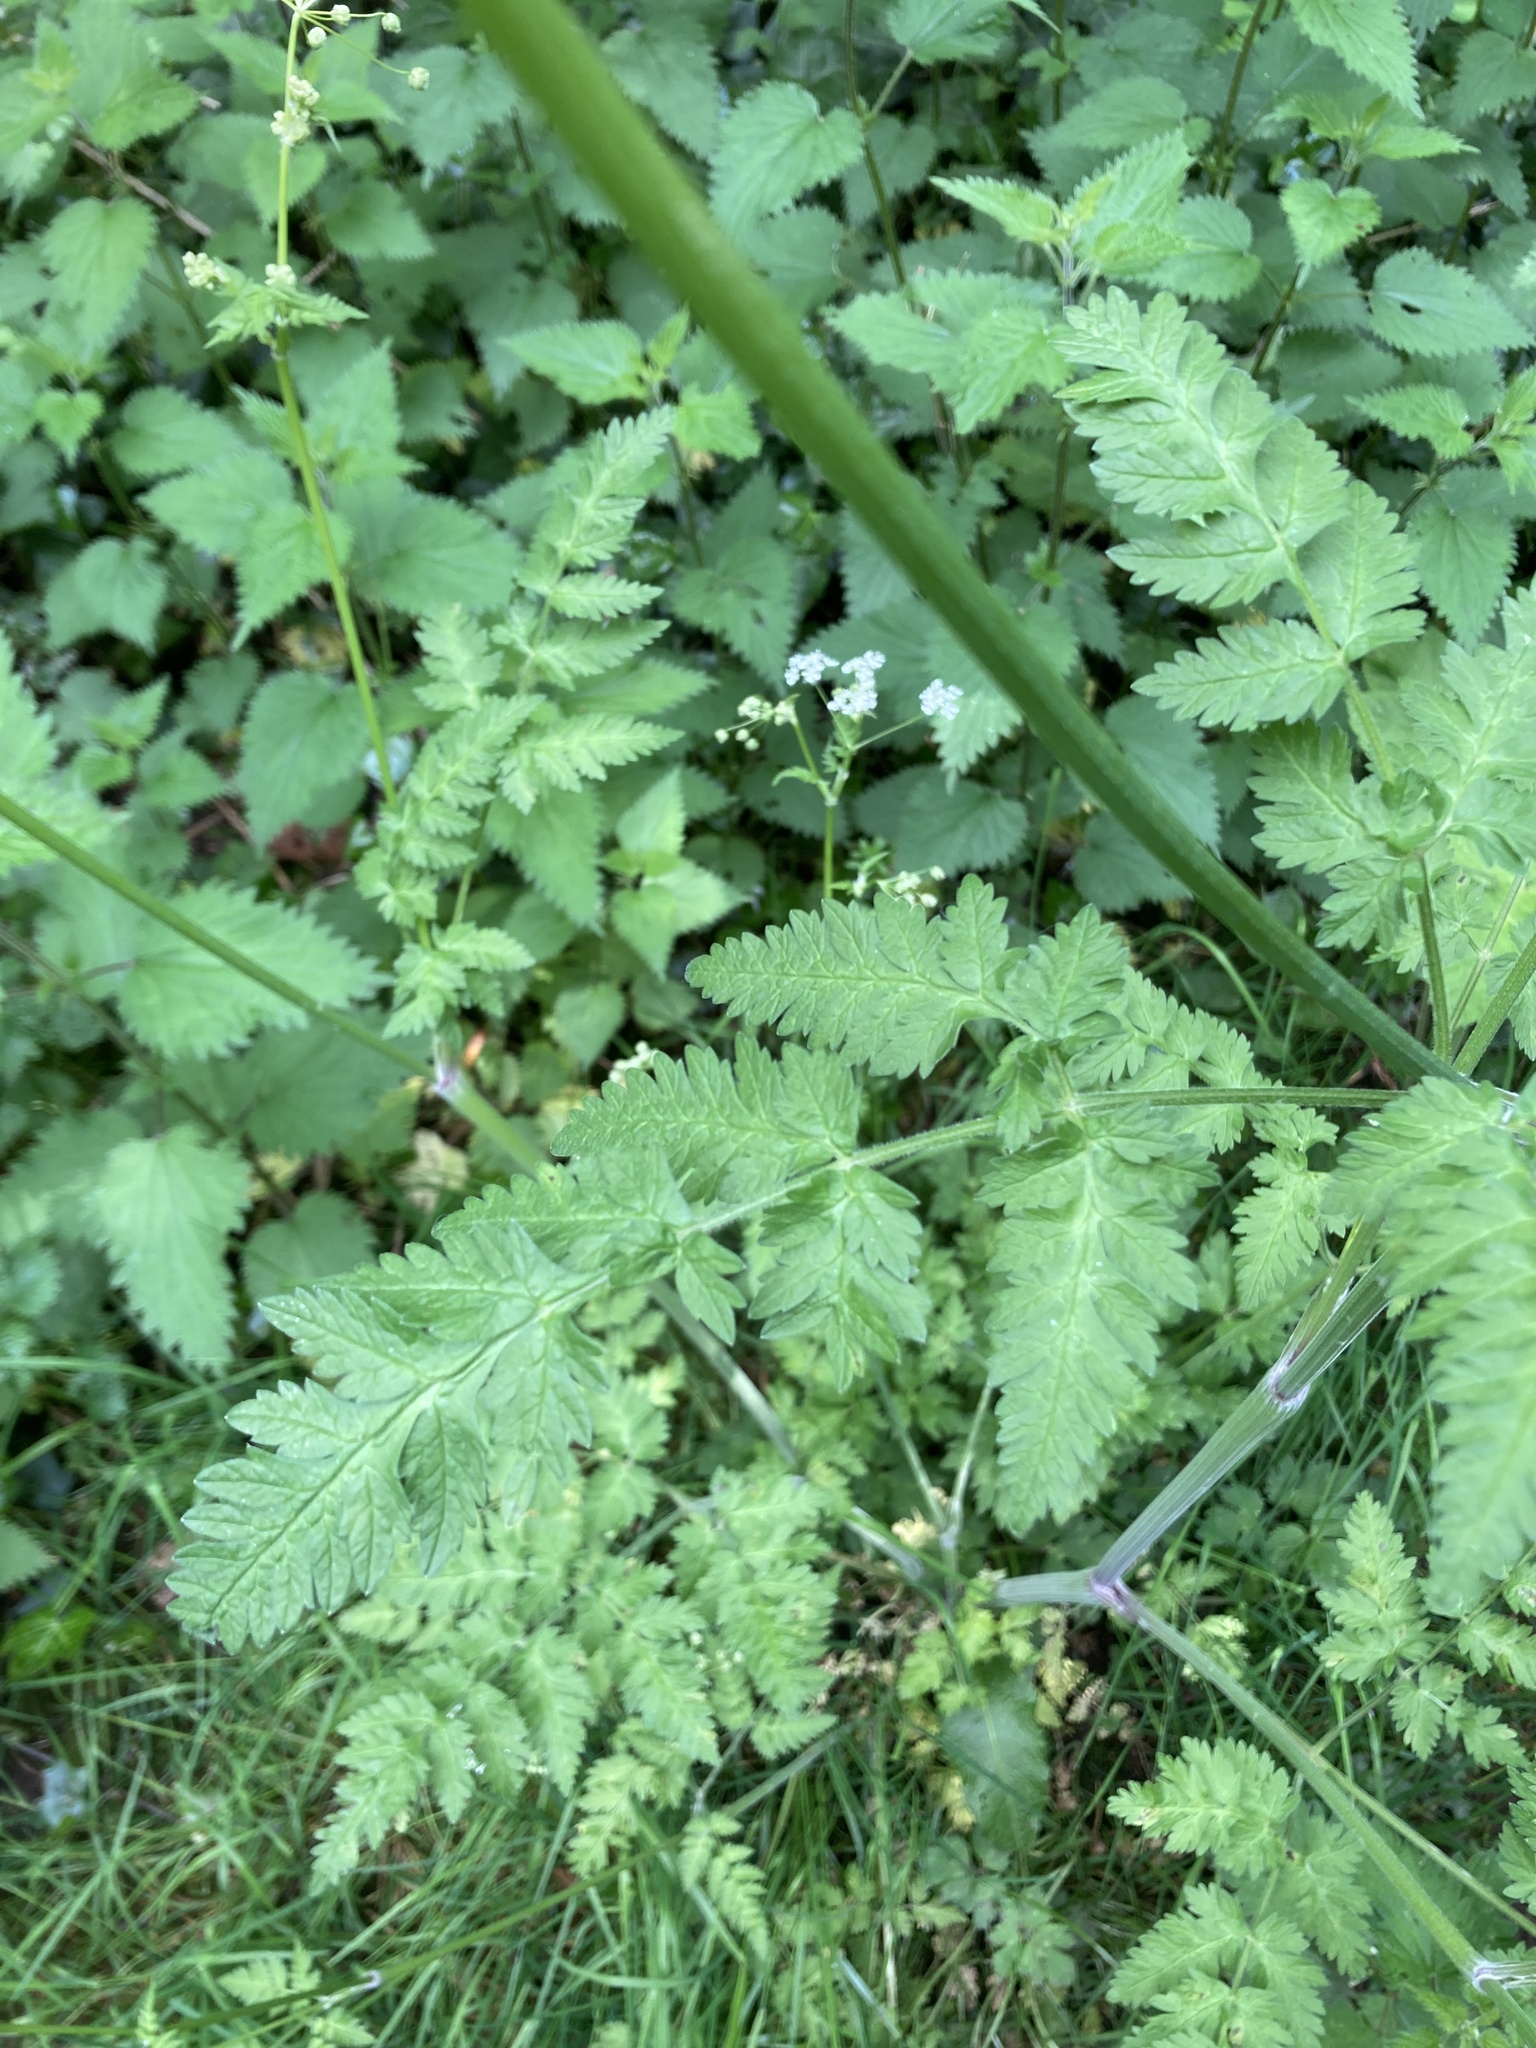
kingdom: Plantae
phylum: Tracheophyta
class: Magnoliopsida
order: Apiales
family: Apiaceae
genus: Anthriscus
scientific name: Anthriscus sylvestris
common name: Cow parsley
